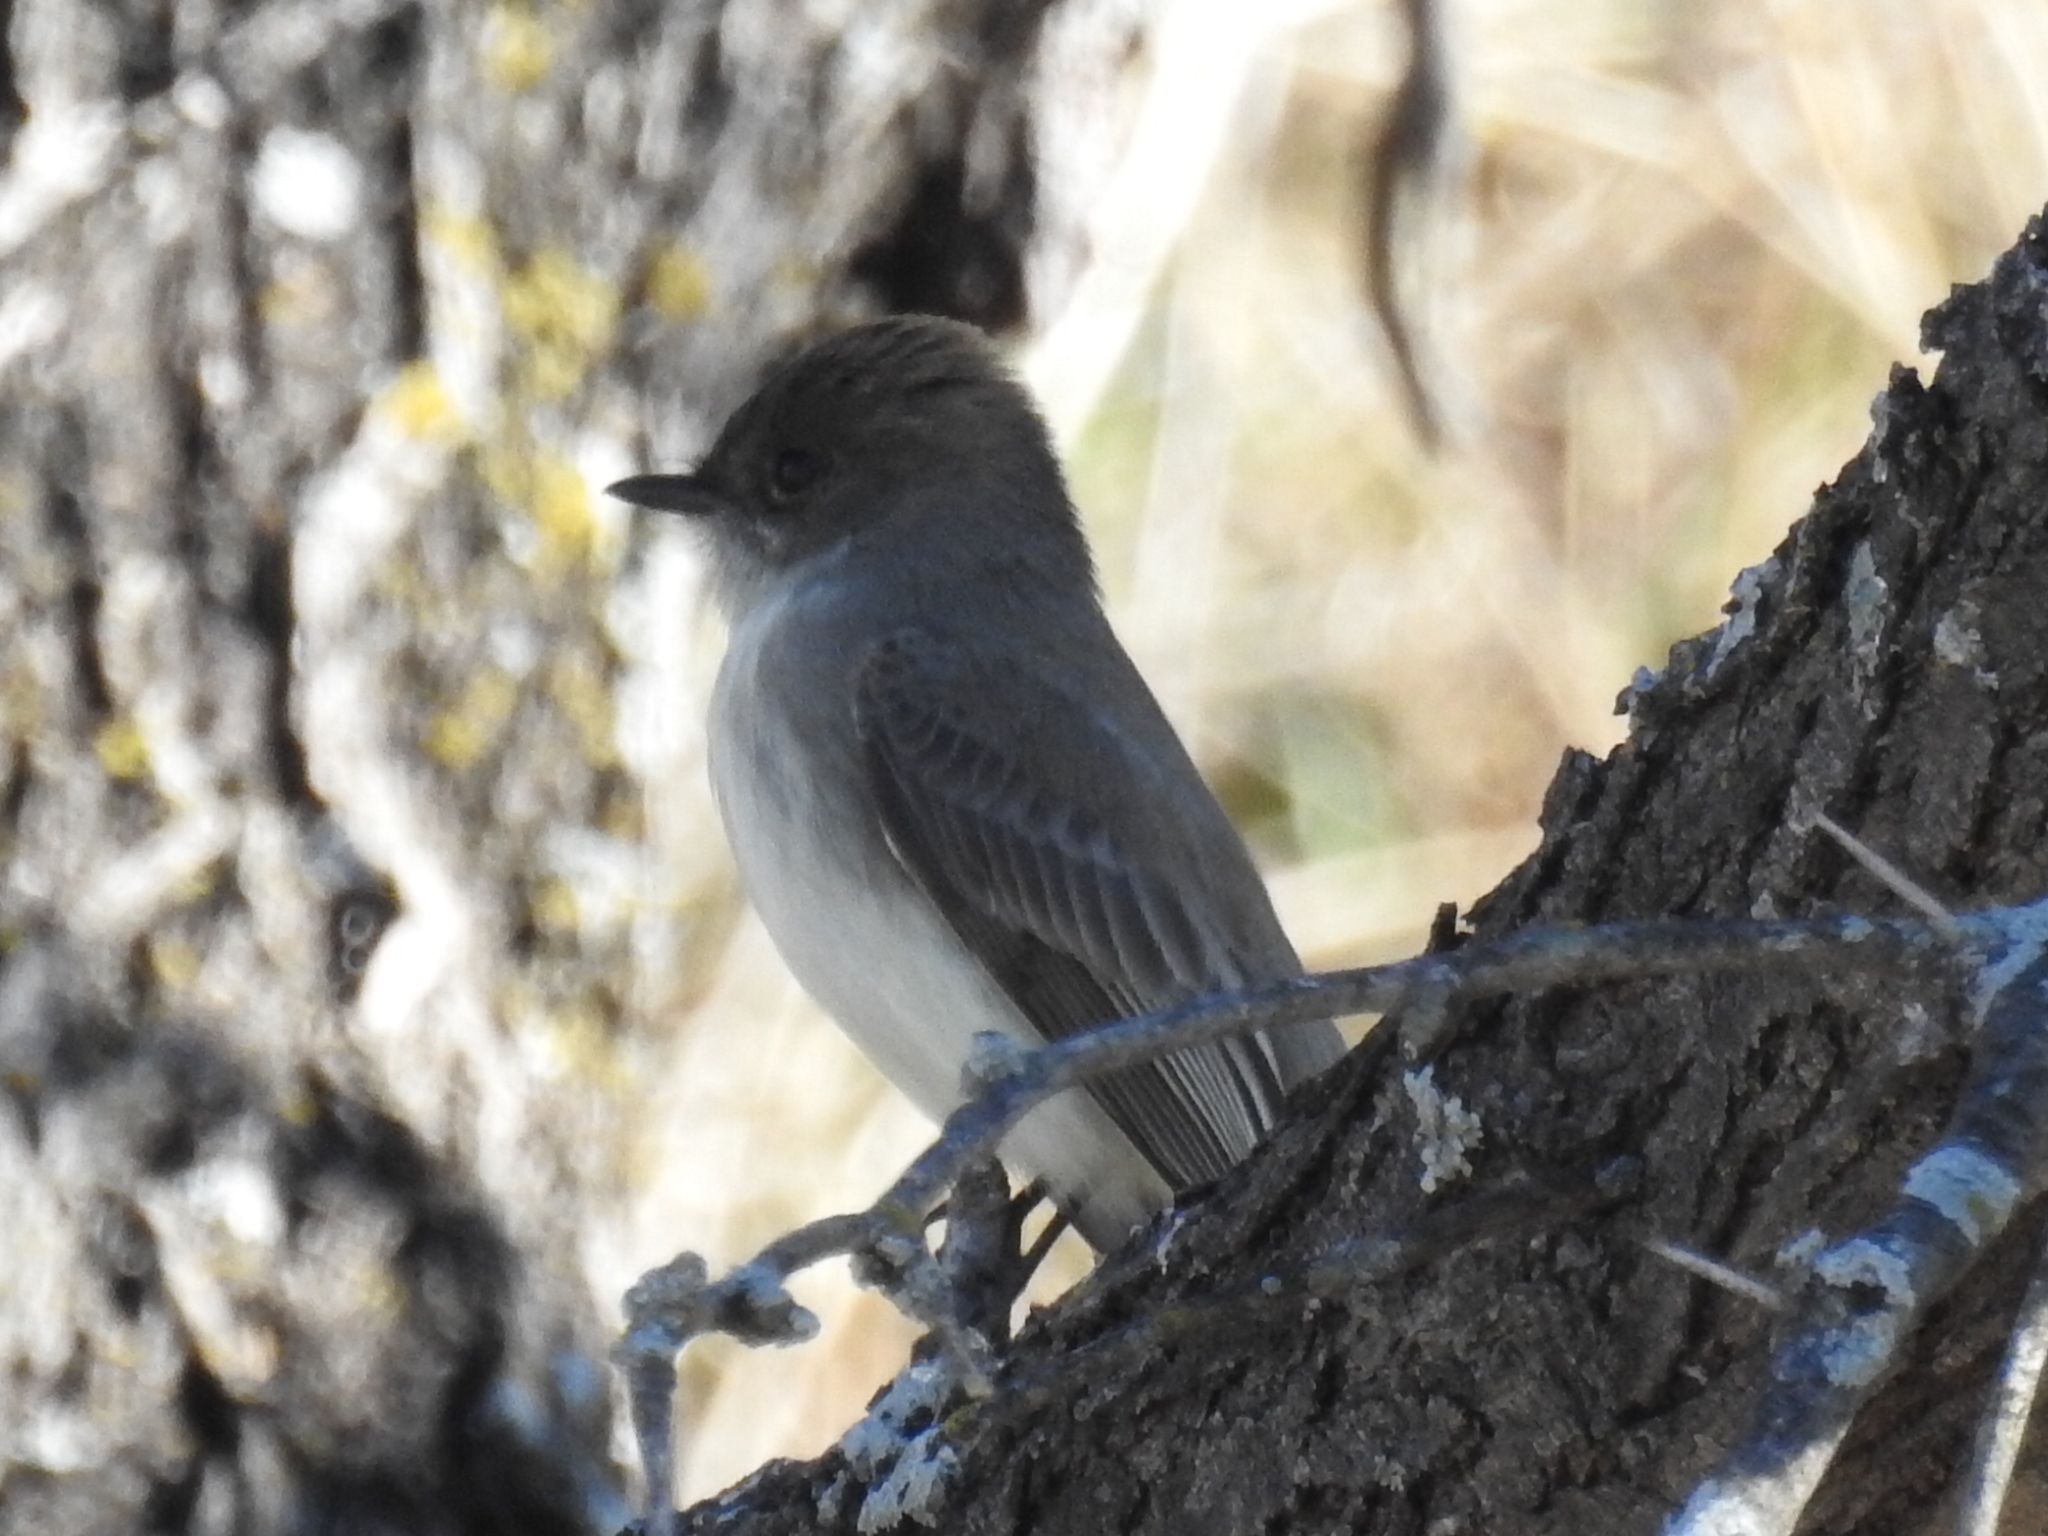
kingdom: Animalia
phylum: Chordata
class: Aves
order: Passeriformes
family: Tyrannidae
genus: Sayornis
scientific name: Sayornis phoebe
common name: Eastern phoebe
